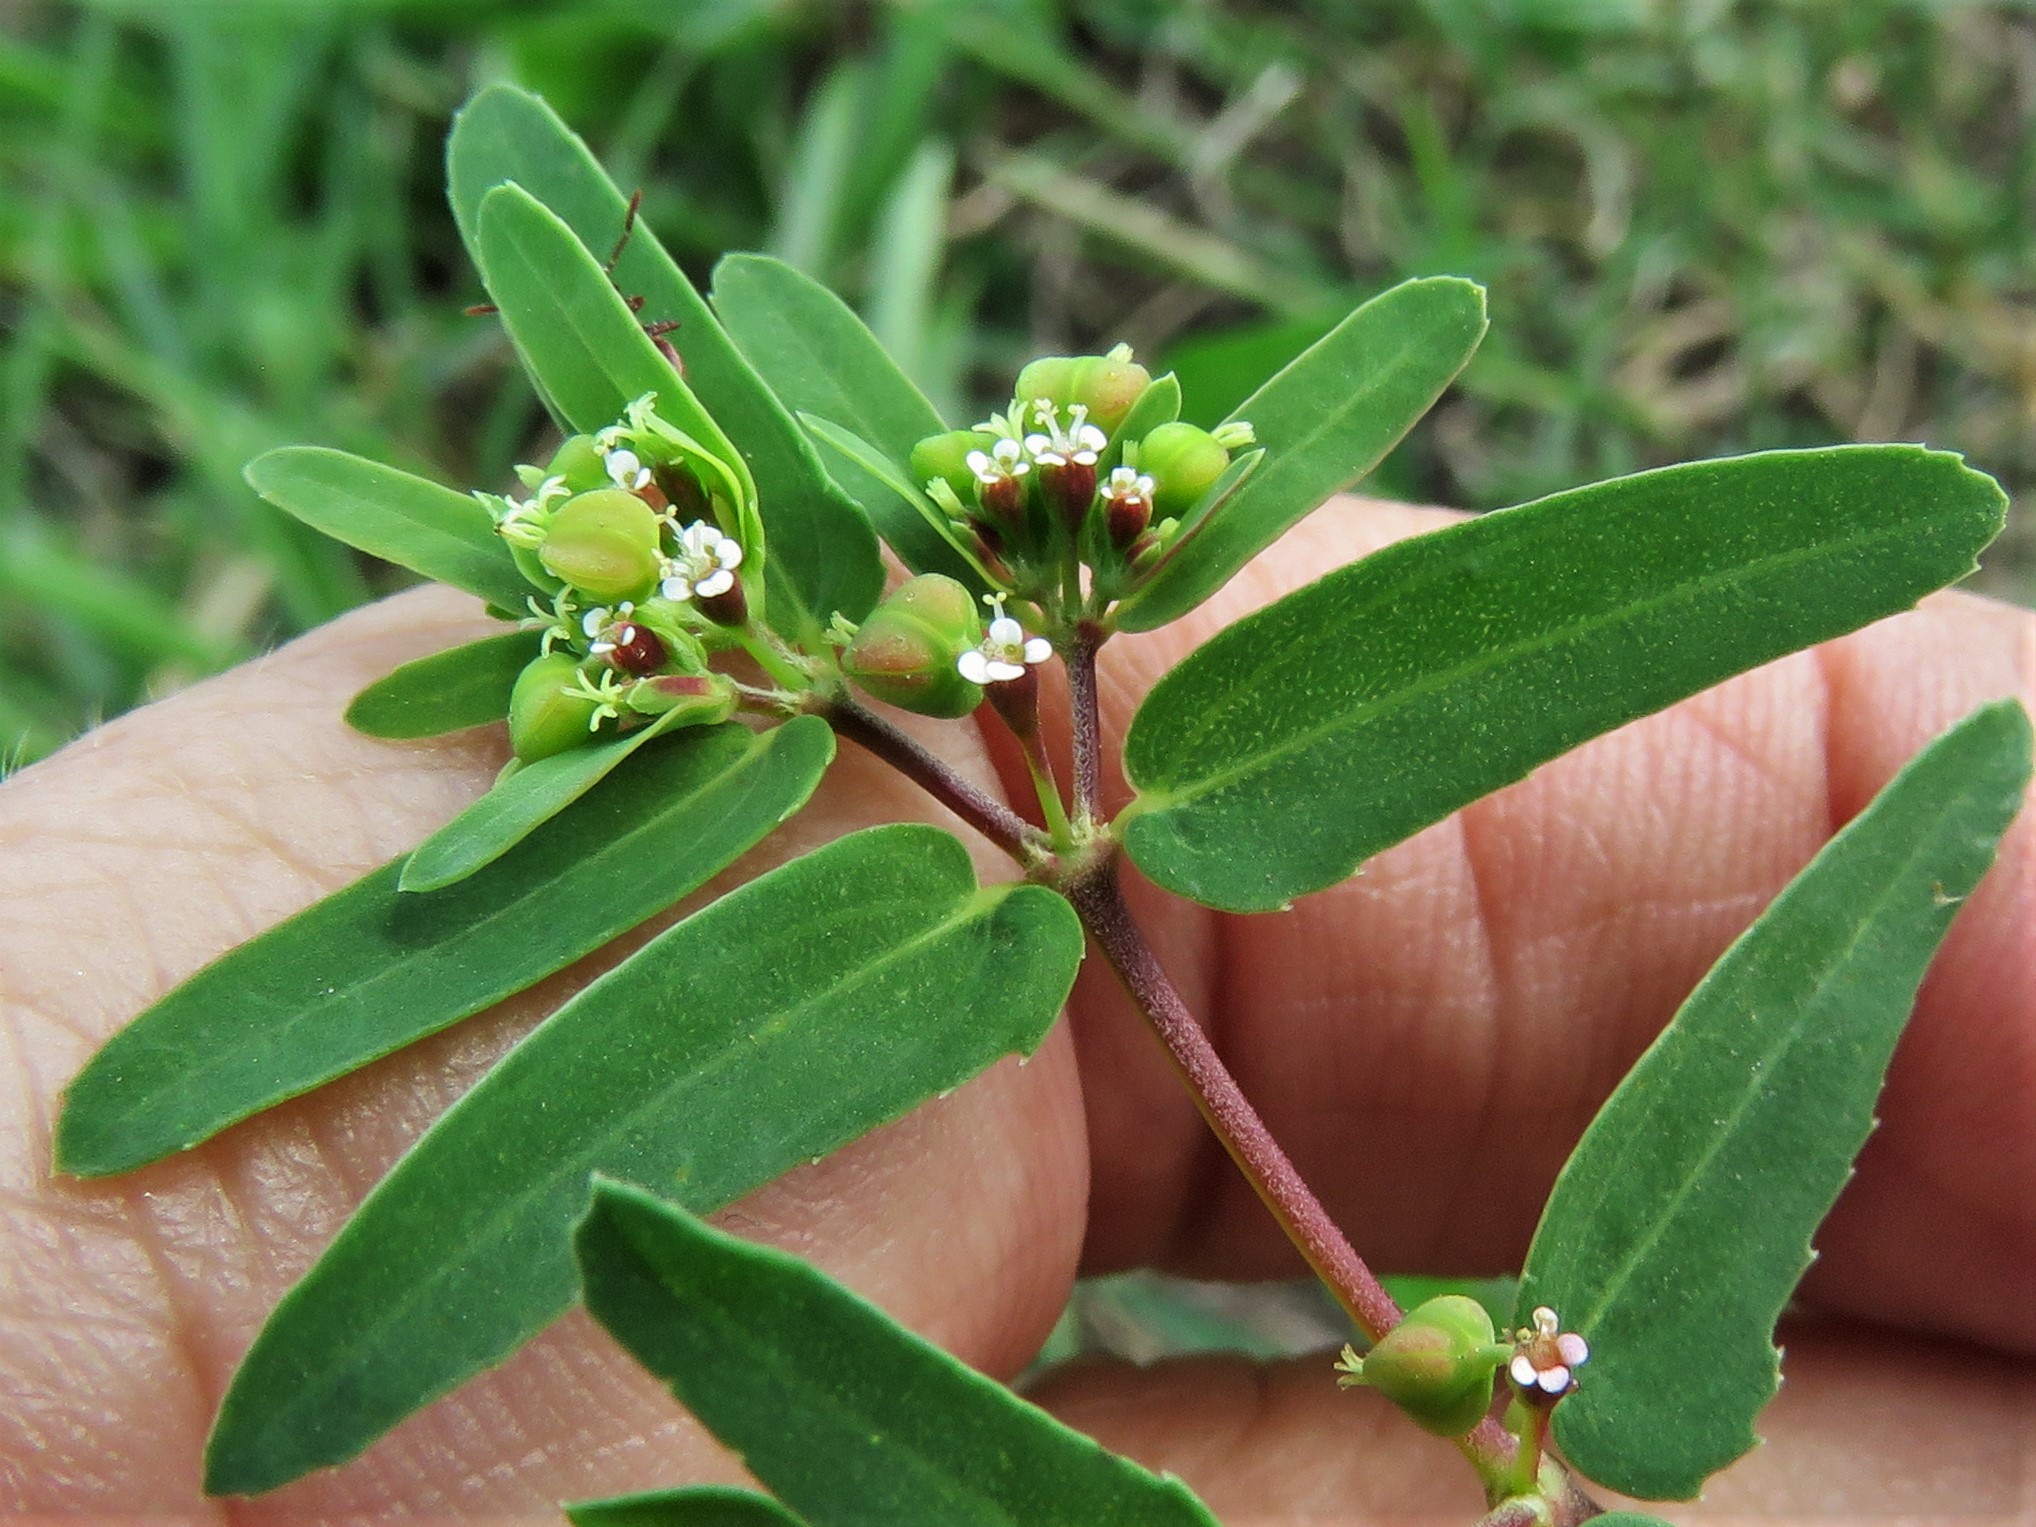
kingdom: Plantae
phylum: Tracheophyta
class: Magnoliopsida
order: Malpighiales
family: Euphorbiaceae
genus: Euphorbia
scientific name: Euphorbia nutans
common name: Eyebane
